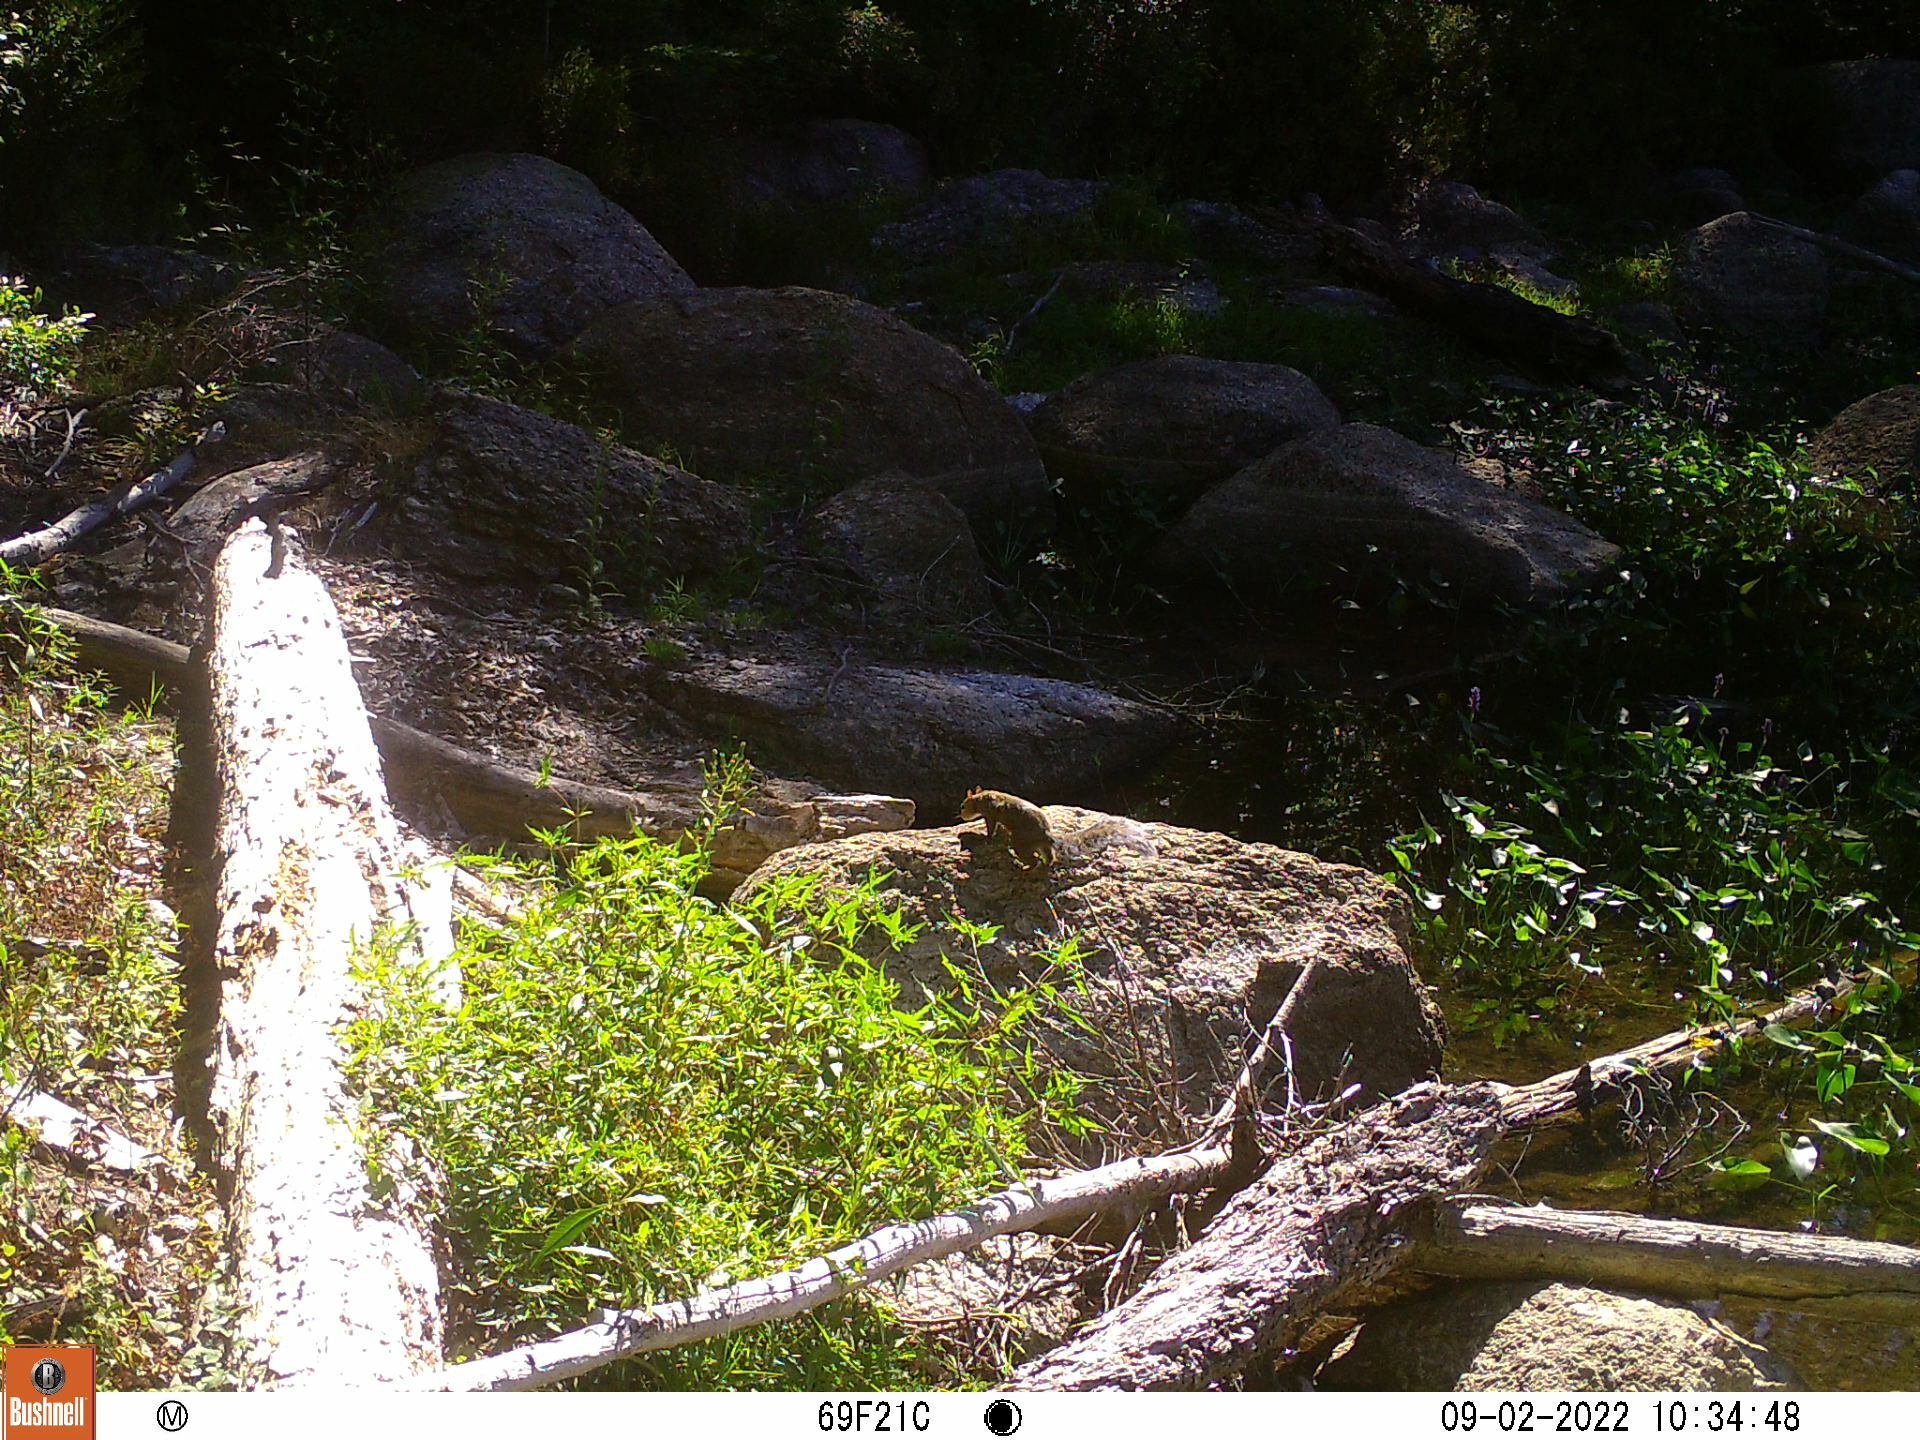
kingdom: Animalia
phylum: Chordata
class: Mammalia
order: Rodentia
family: Sciuridae
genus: Sciurus
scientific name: Sciurus carolinensis
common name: Eastern gray squirrel
